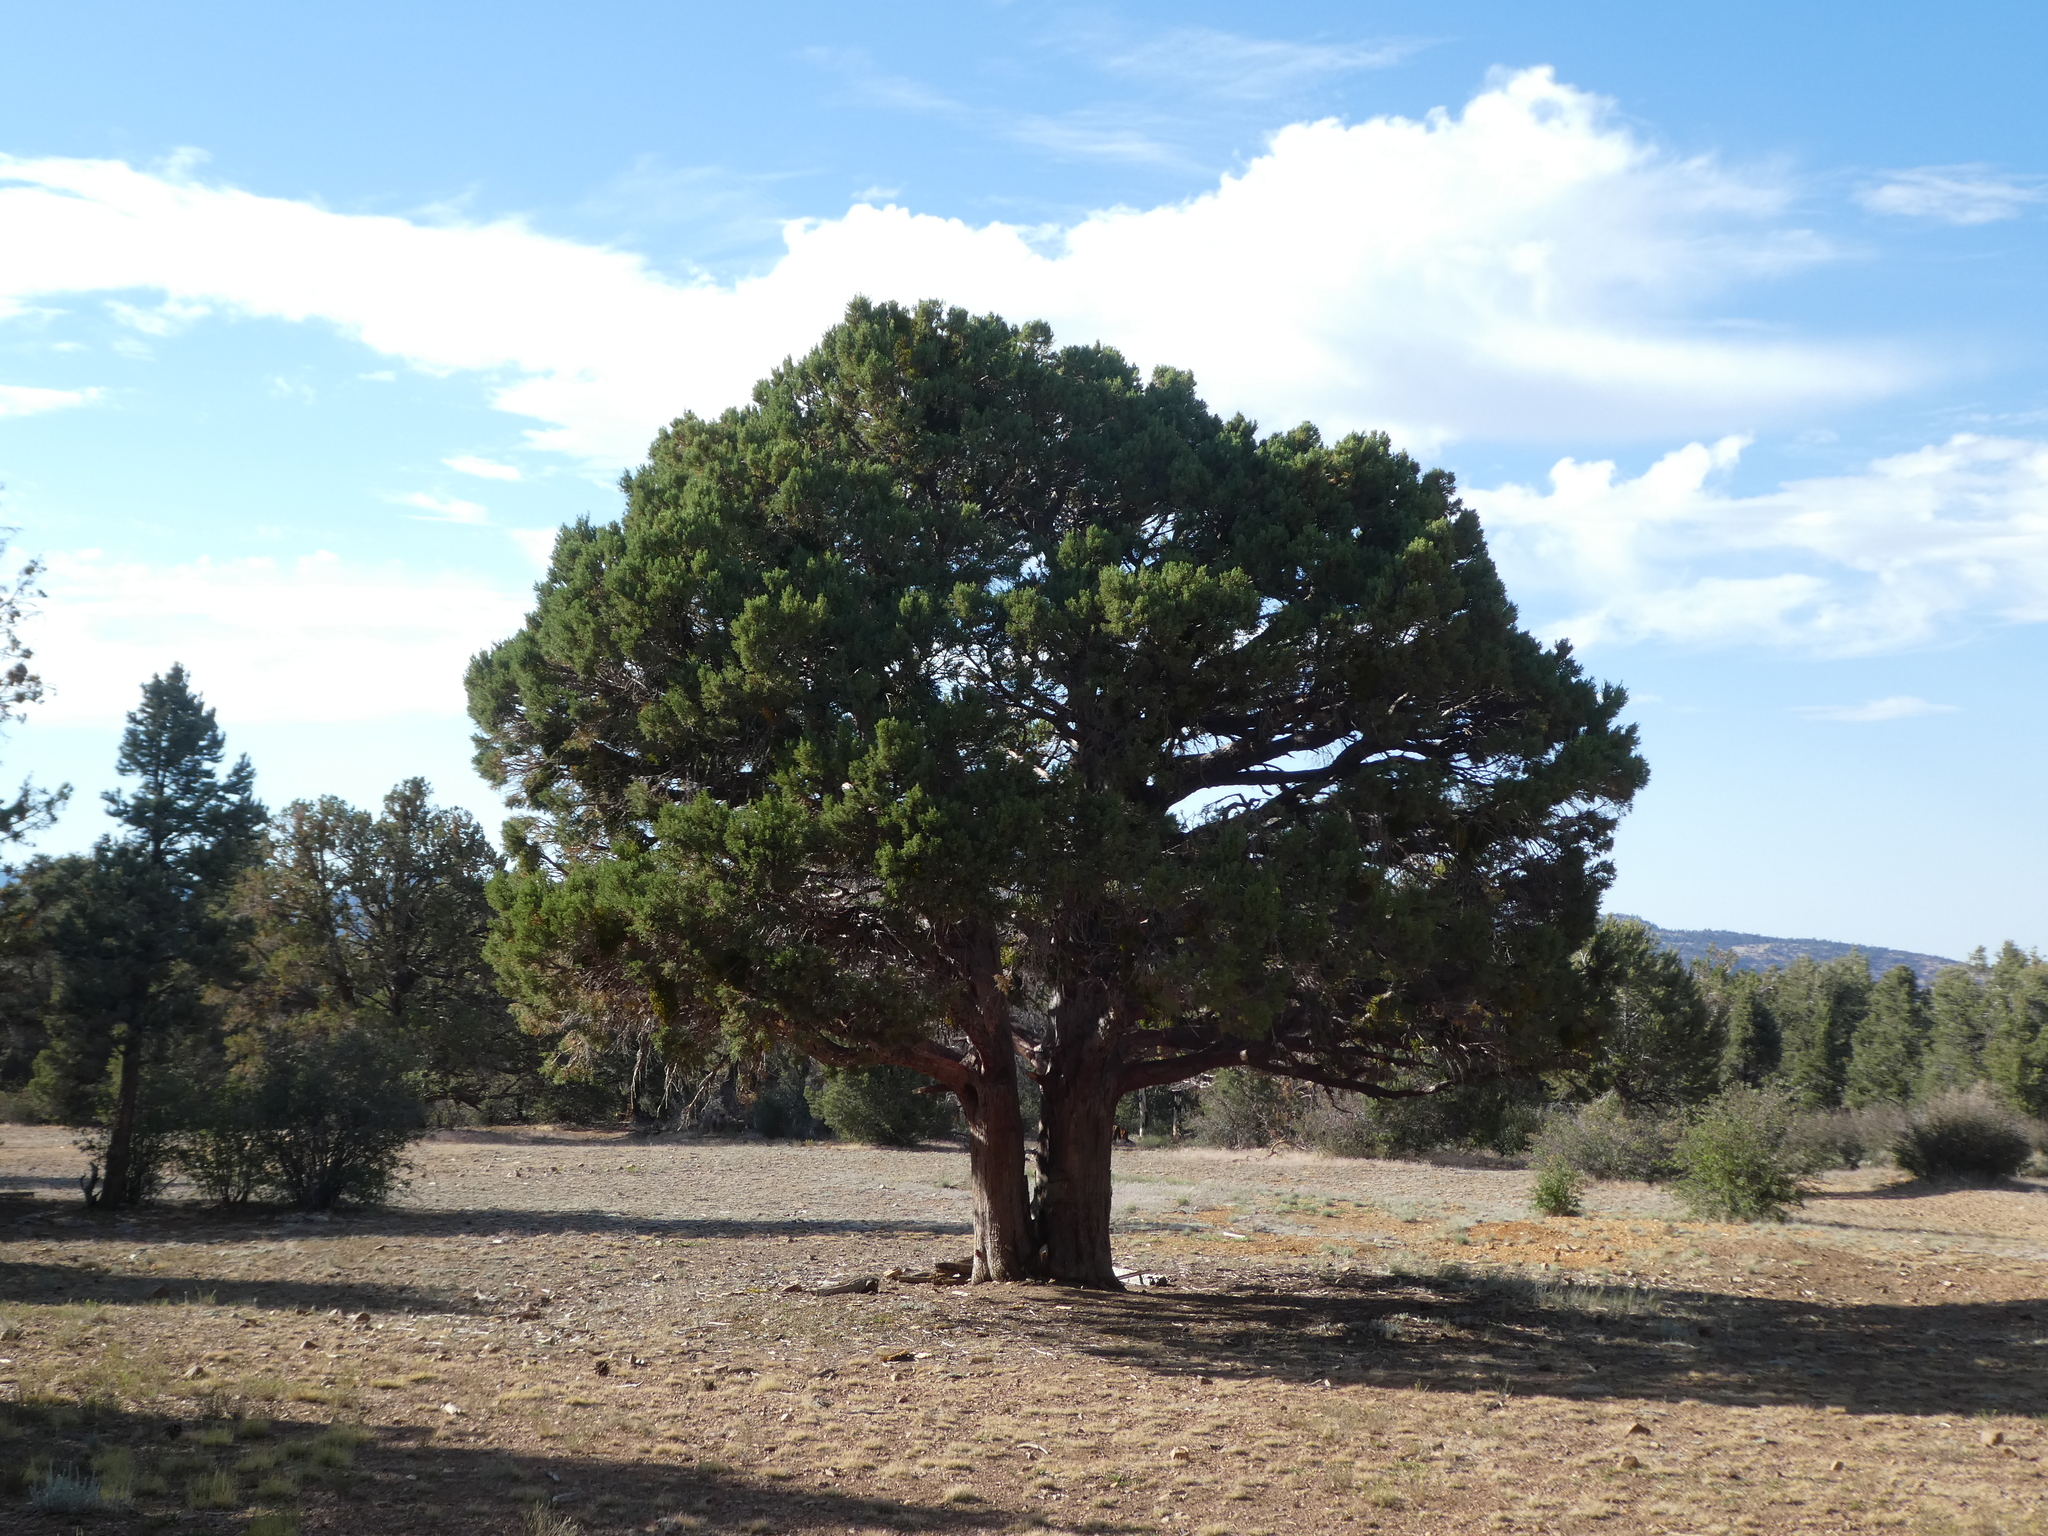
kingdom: Plantae
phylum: Tracheophyta
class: Pinopsida
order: Pinales
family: Cupressaceae
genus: Juniperus
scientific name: Juniperus occidentalis
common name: Western juniper
